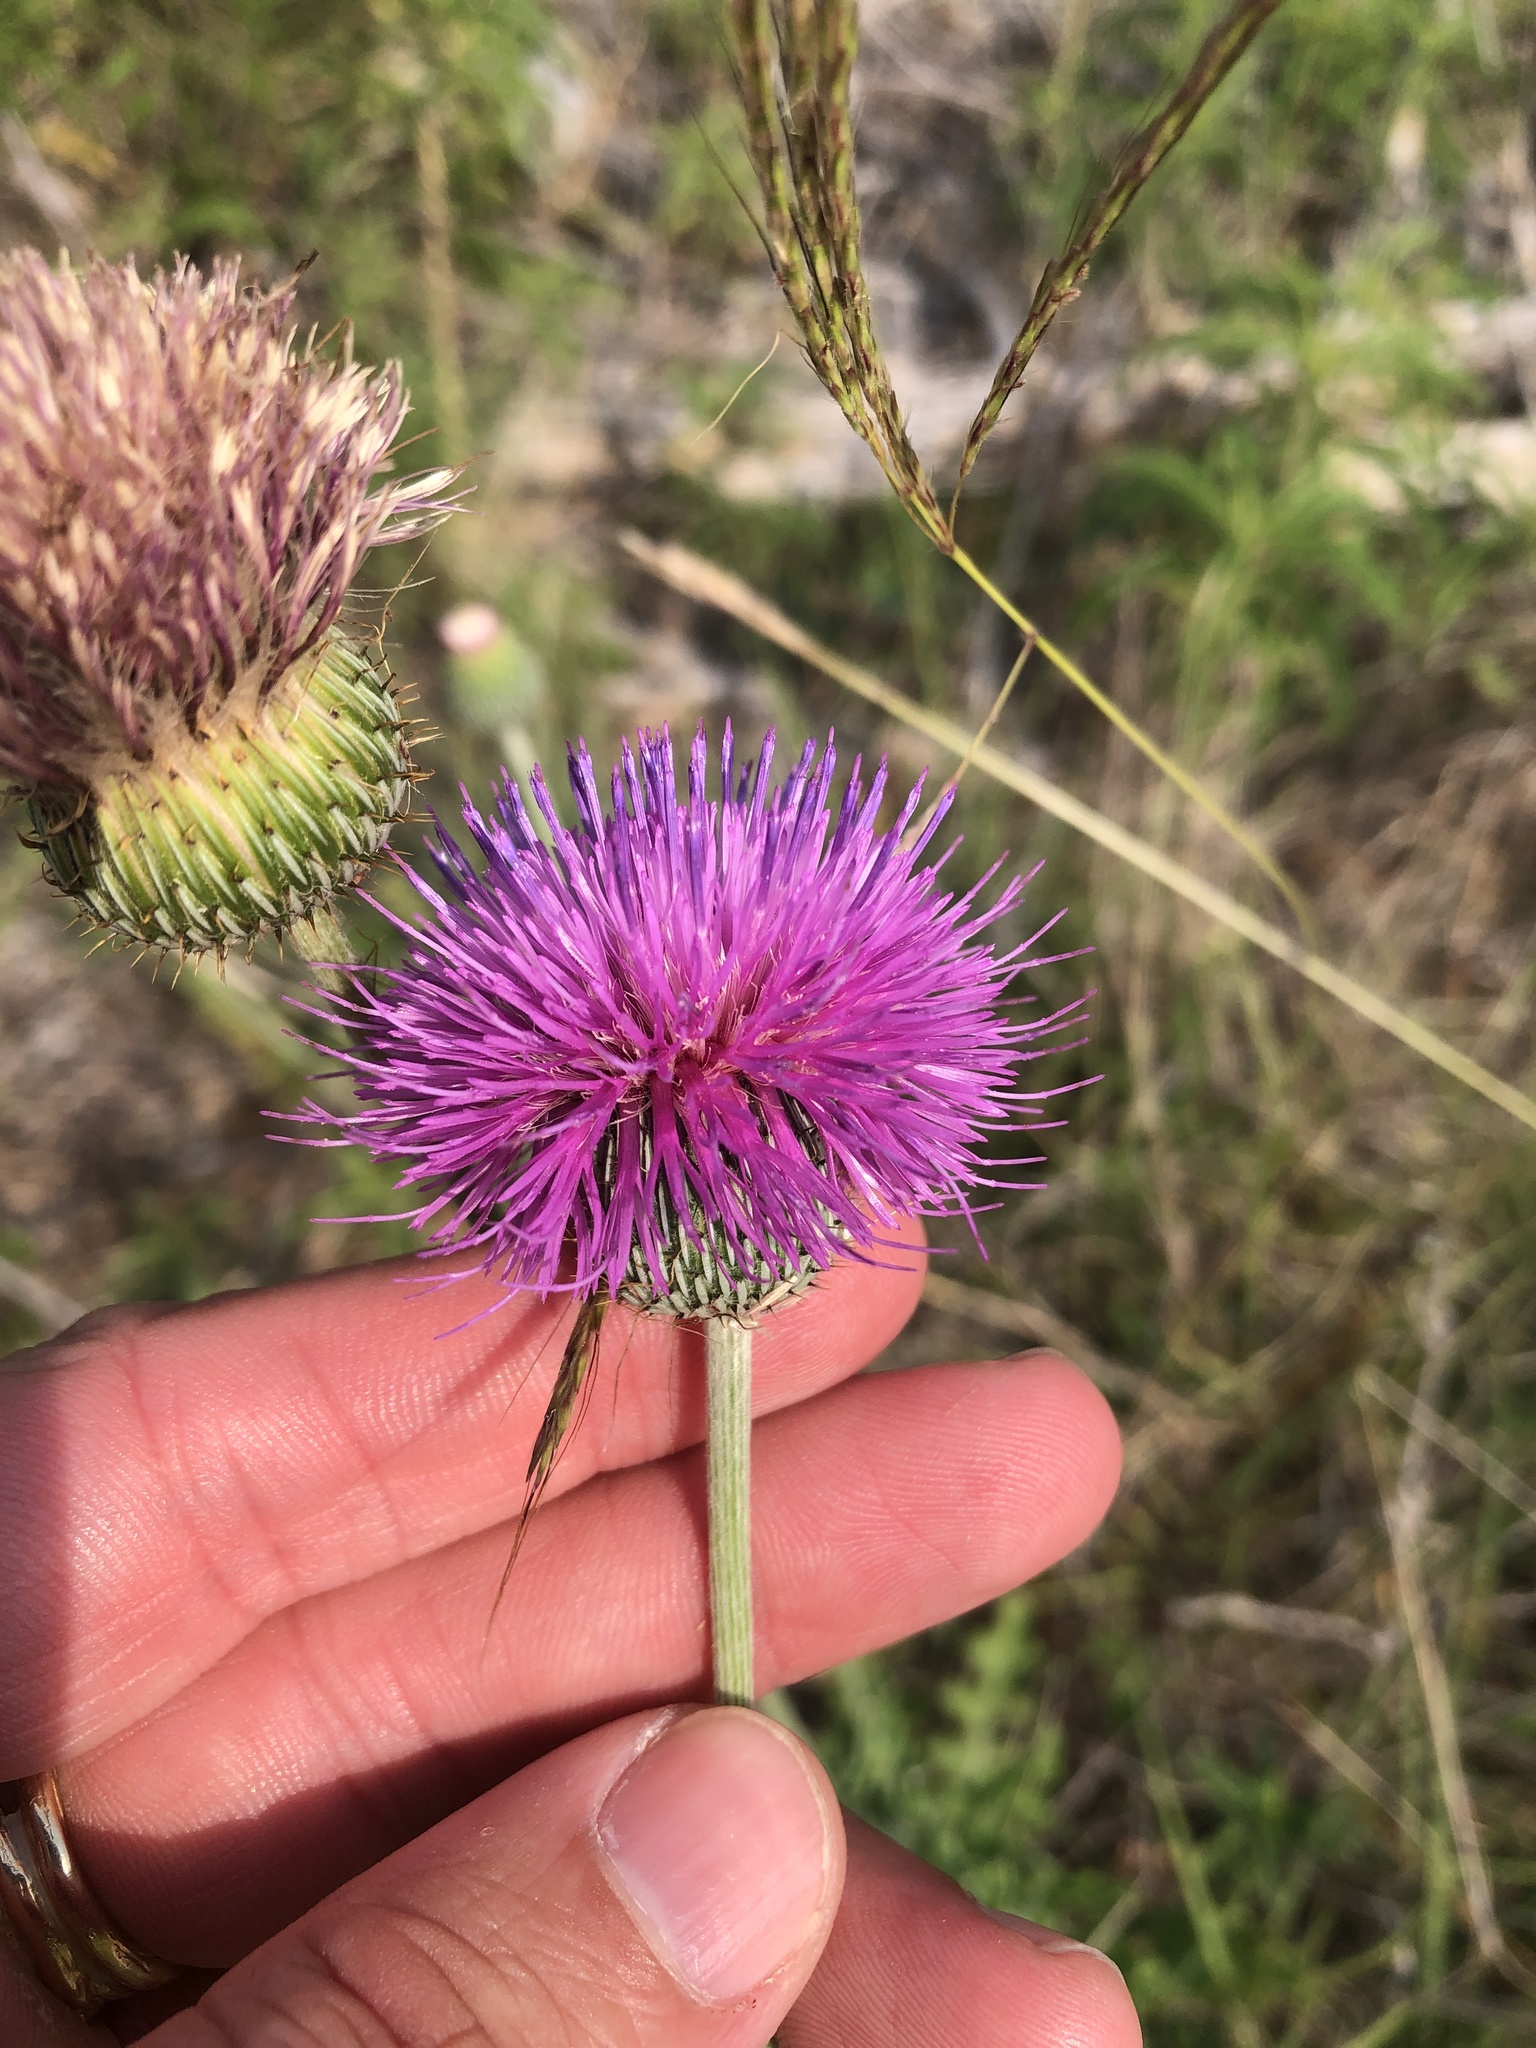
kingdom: Plantae
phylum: Tracheophyta
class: Magnoliopsida
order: Asterales
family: Asteraceae
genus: Cirsium
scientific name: Cirsium texanum
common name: Texas purple thistle
